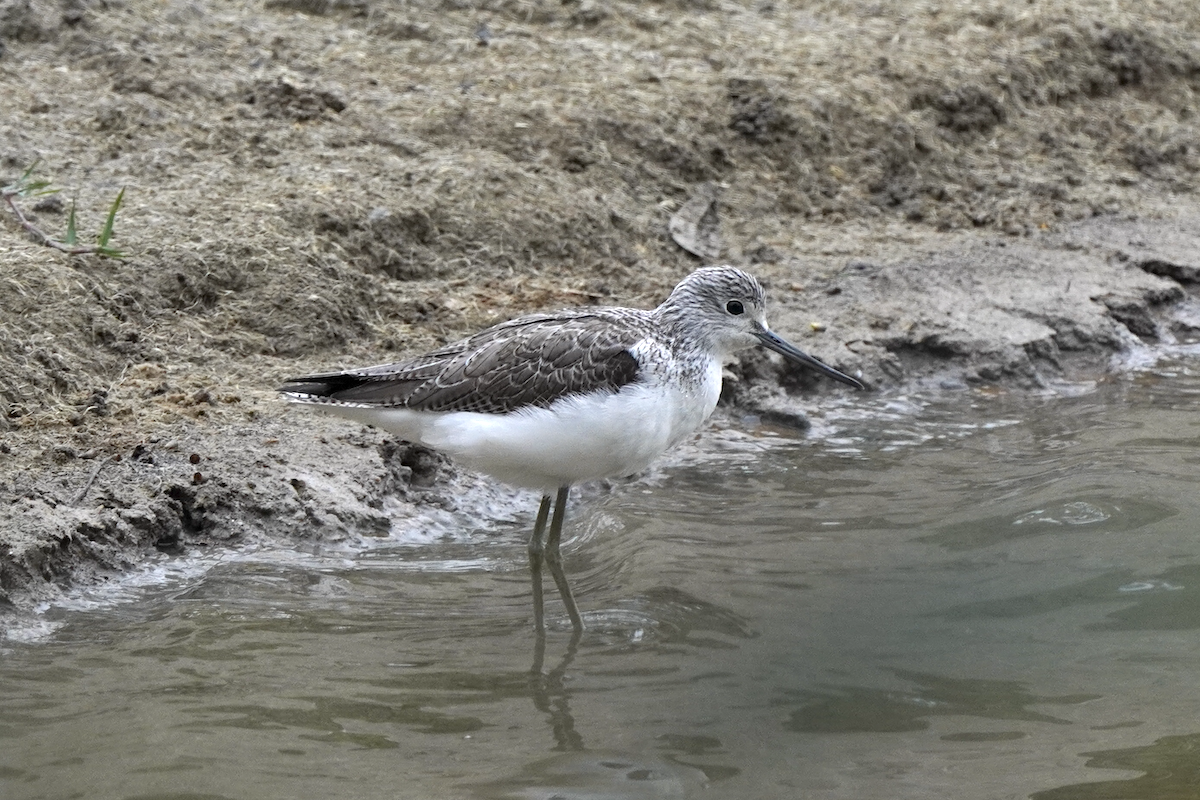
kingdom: Animalia
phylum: Chordata
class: Aves
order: Charadriiformes
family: Scolopacidae
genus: Tringa
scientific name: Tringa nebularia
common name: Common greenshank
